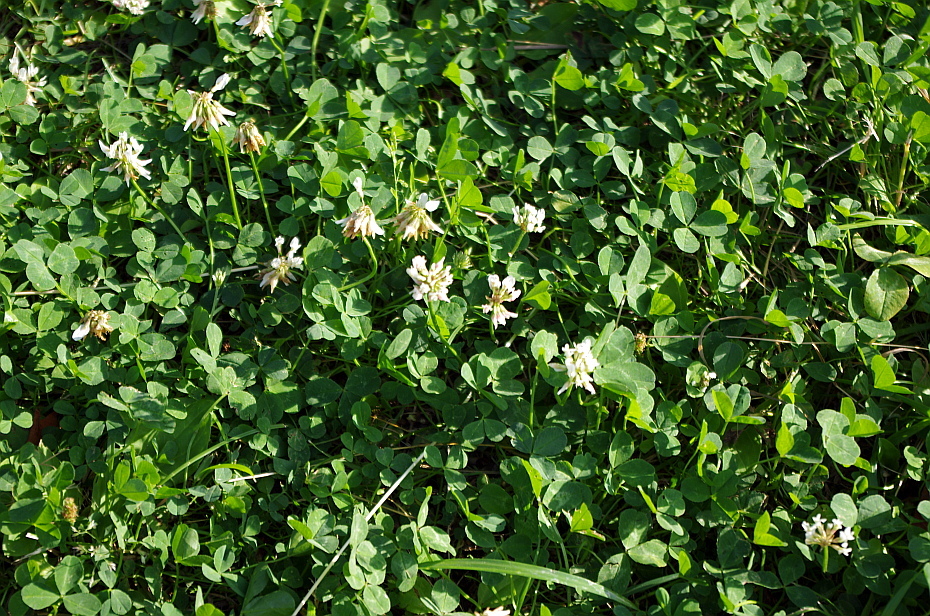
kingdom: Plantae
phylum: Tracheophyta
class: Magnoliopsida
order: Fabales
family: Fabaceae
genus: Trifolium
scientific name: Trifolium repens
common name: White clover
